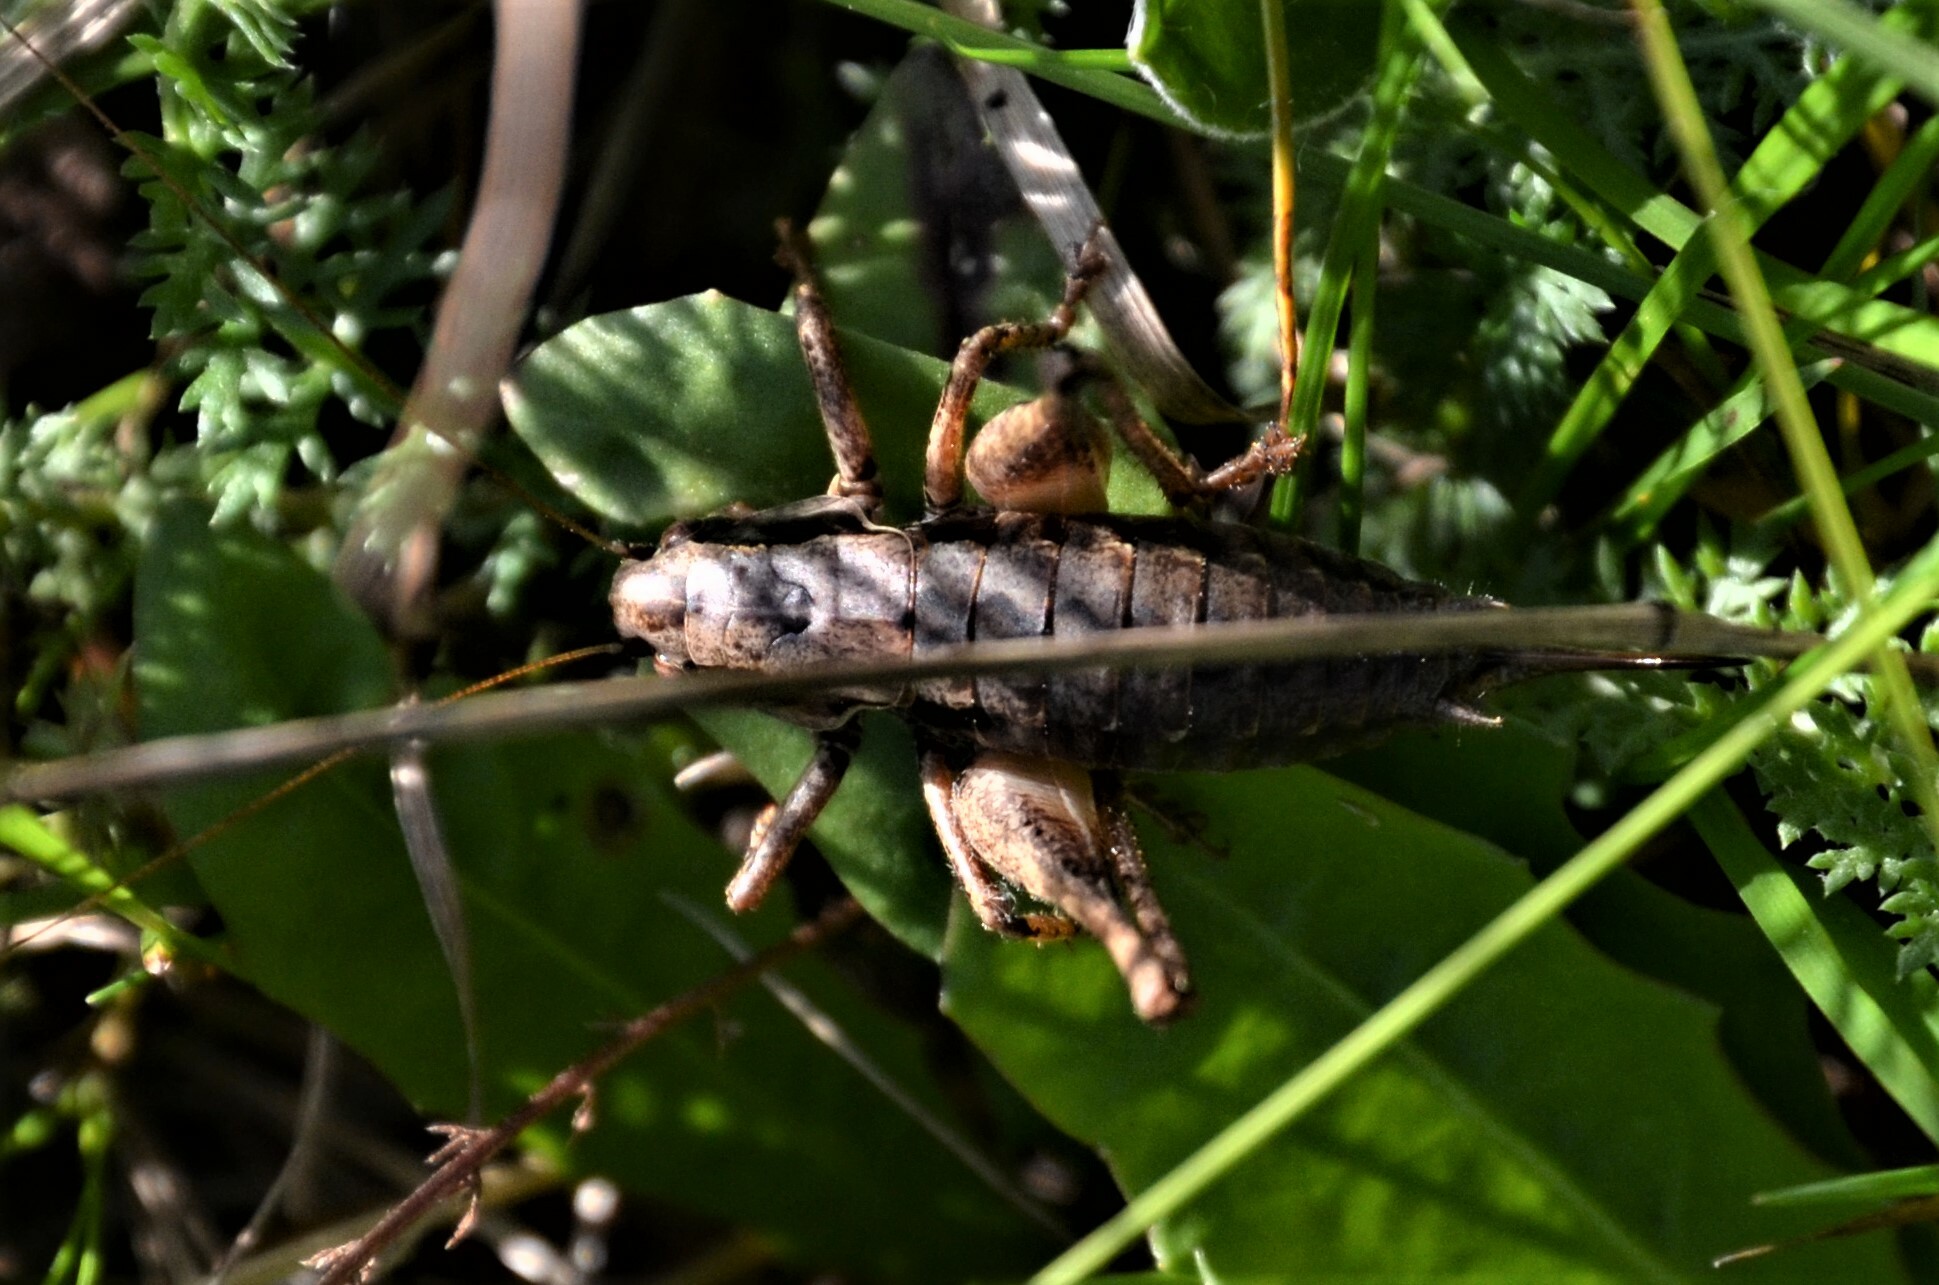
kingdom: Animalia
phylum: Arthropoda
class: Insecta
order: Orthoptera
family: Tettigoniidae
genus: Pholidoptera
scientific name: Pholidoptera griseoaptera
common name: Dark bush-cricket
